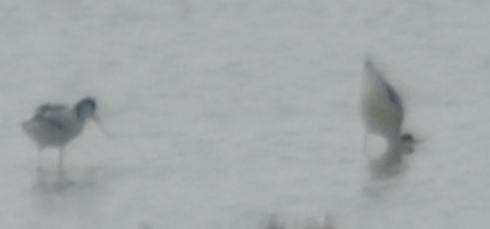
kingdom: Animalia
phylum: Chordata
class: Aves
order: Charadriiformes
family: Recurvirostridae
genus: Recurvirostra
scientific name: Recurvirostra avosetta
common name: Pied avocet
